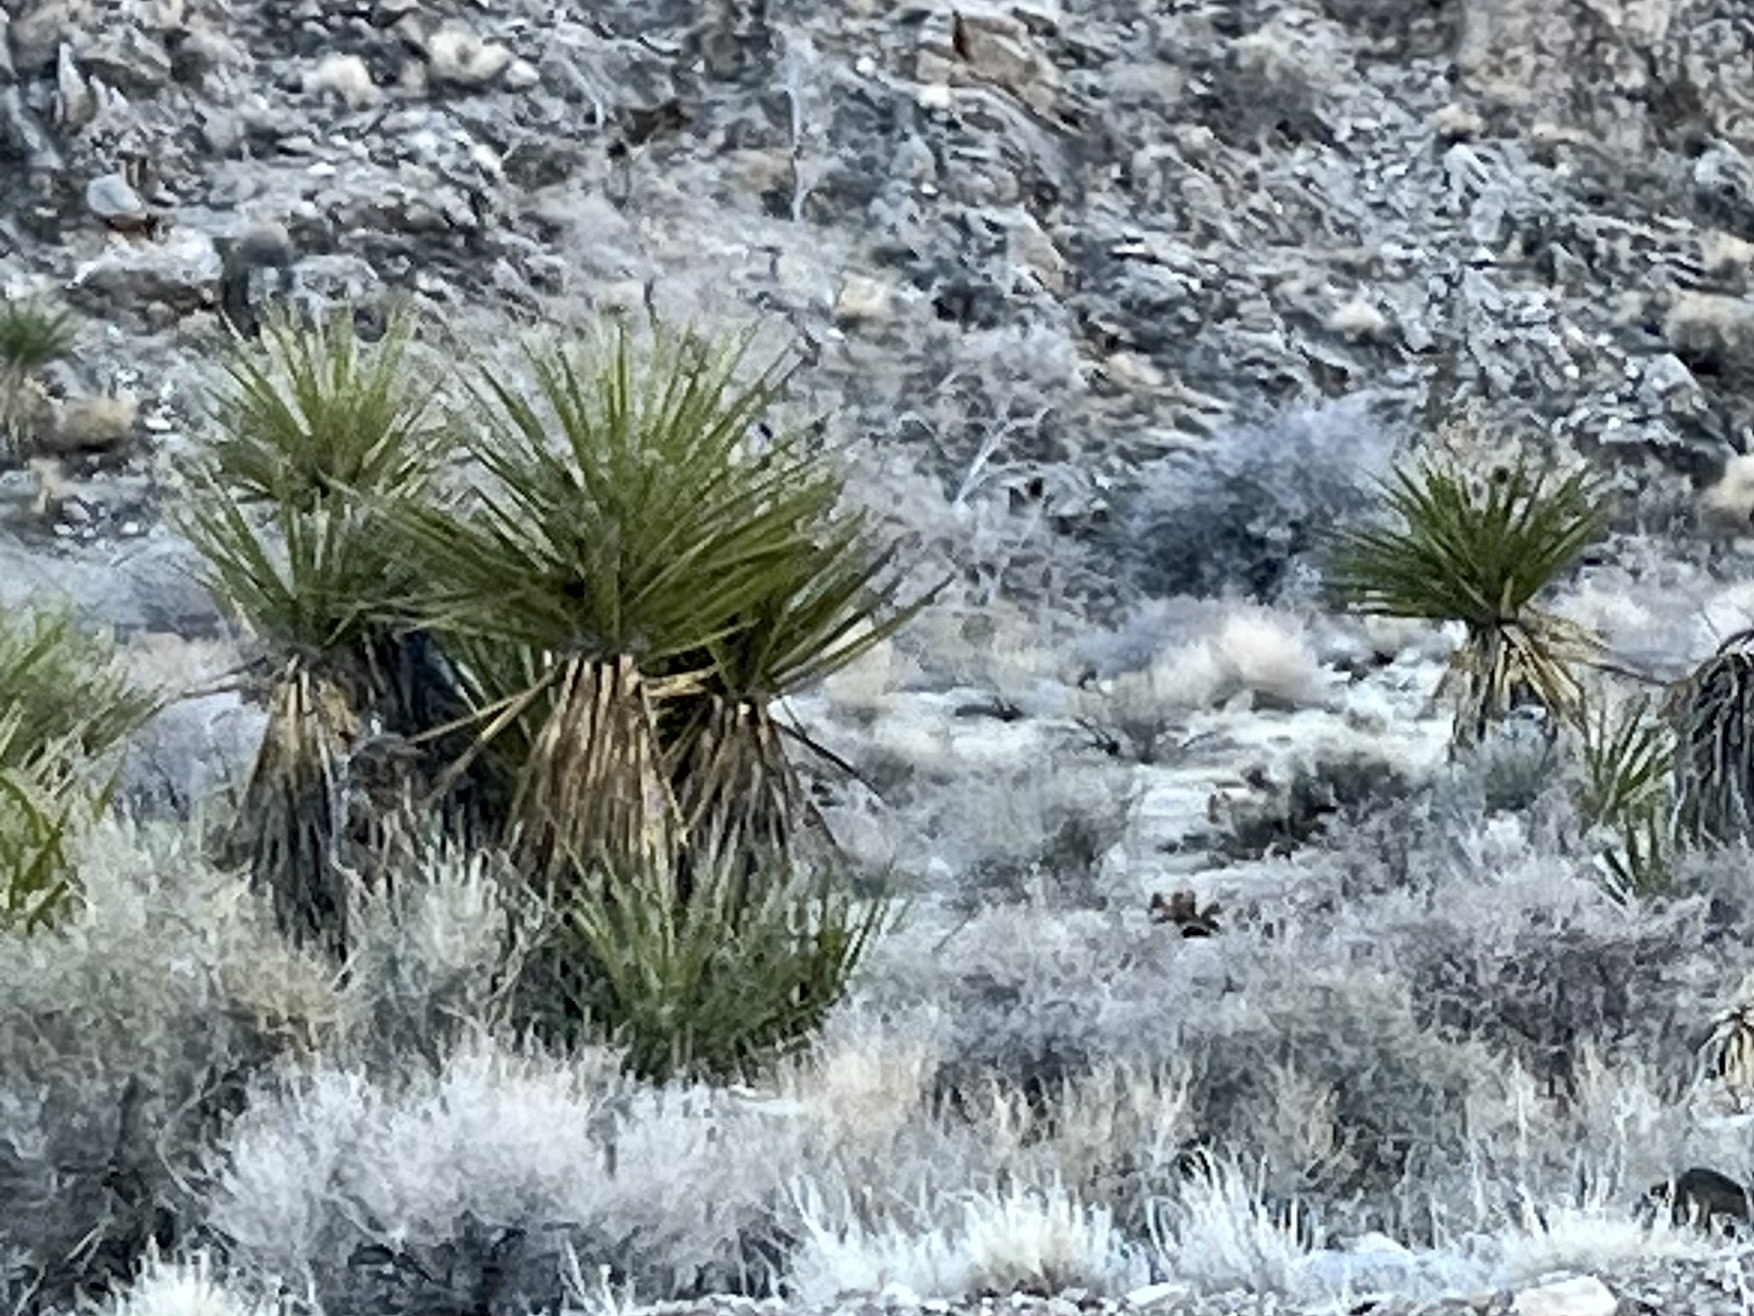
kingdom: Plantae
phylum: Tracheophyta
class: Liliopsida
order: Asparagales
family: Asparagaceae
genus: Yucca
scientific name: Yucca schidigera
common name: Mojave yucca
